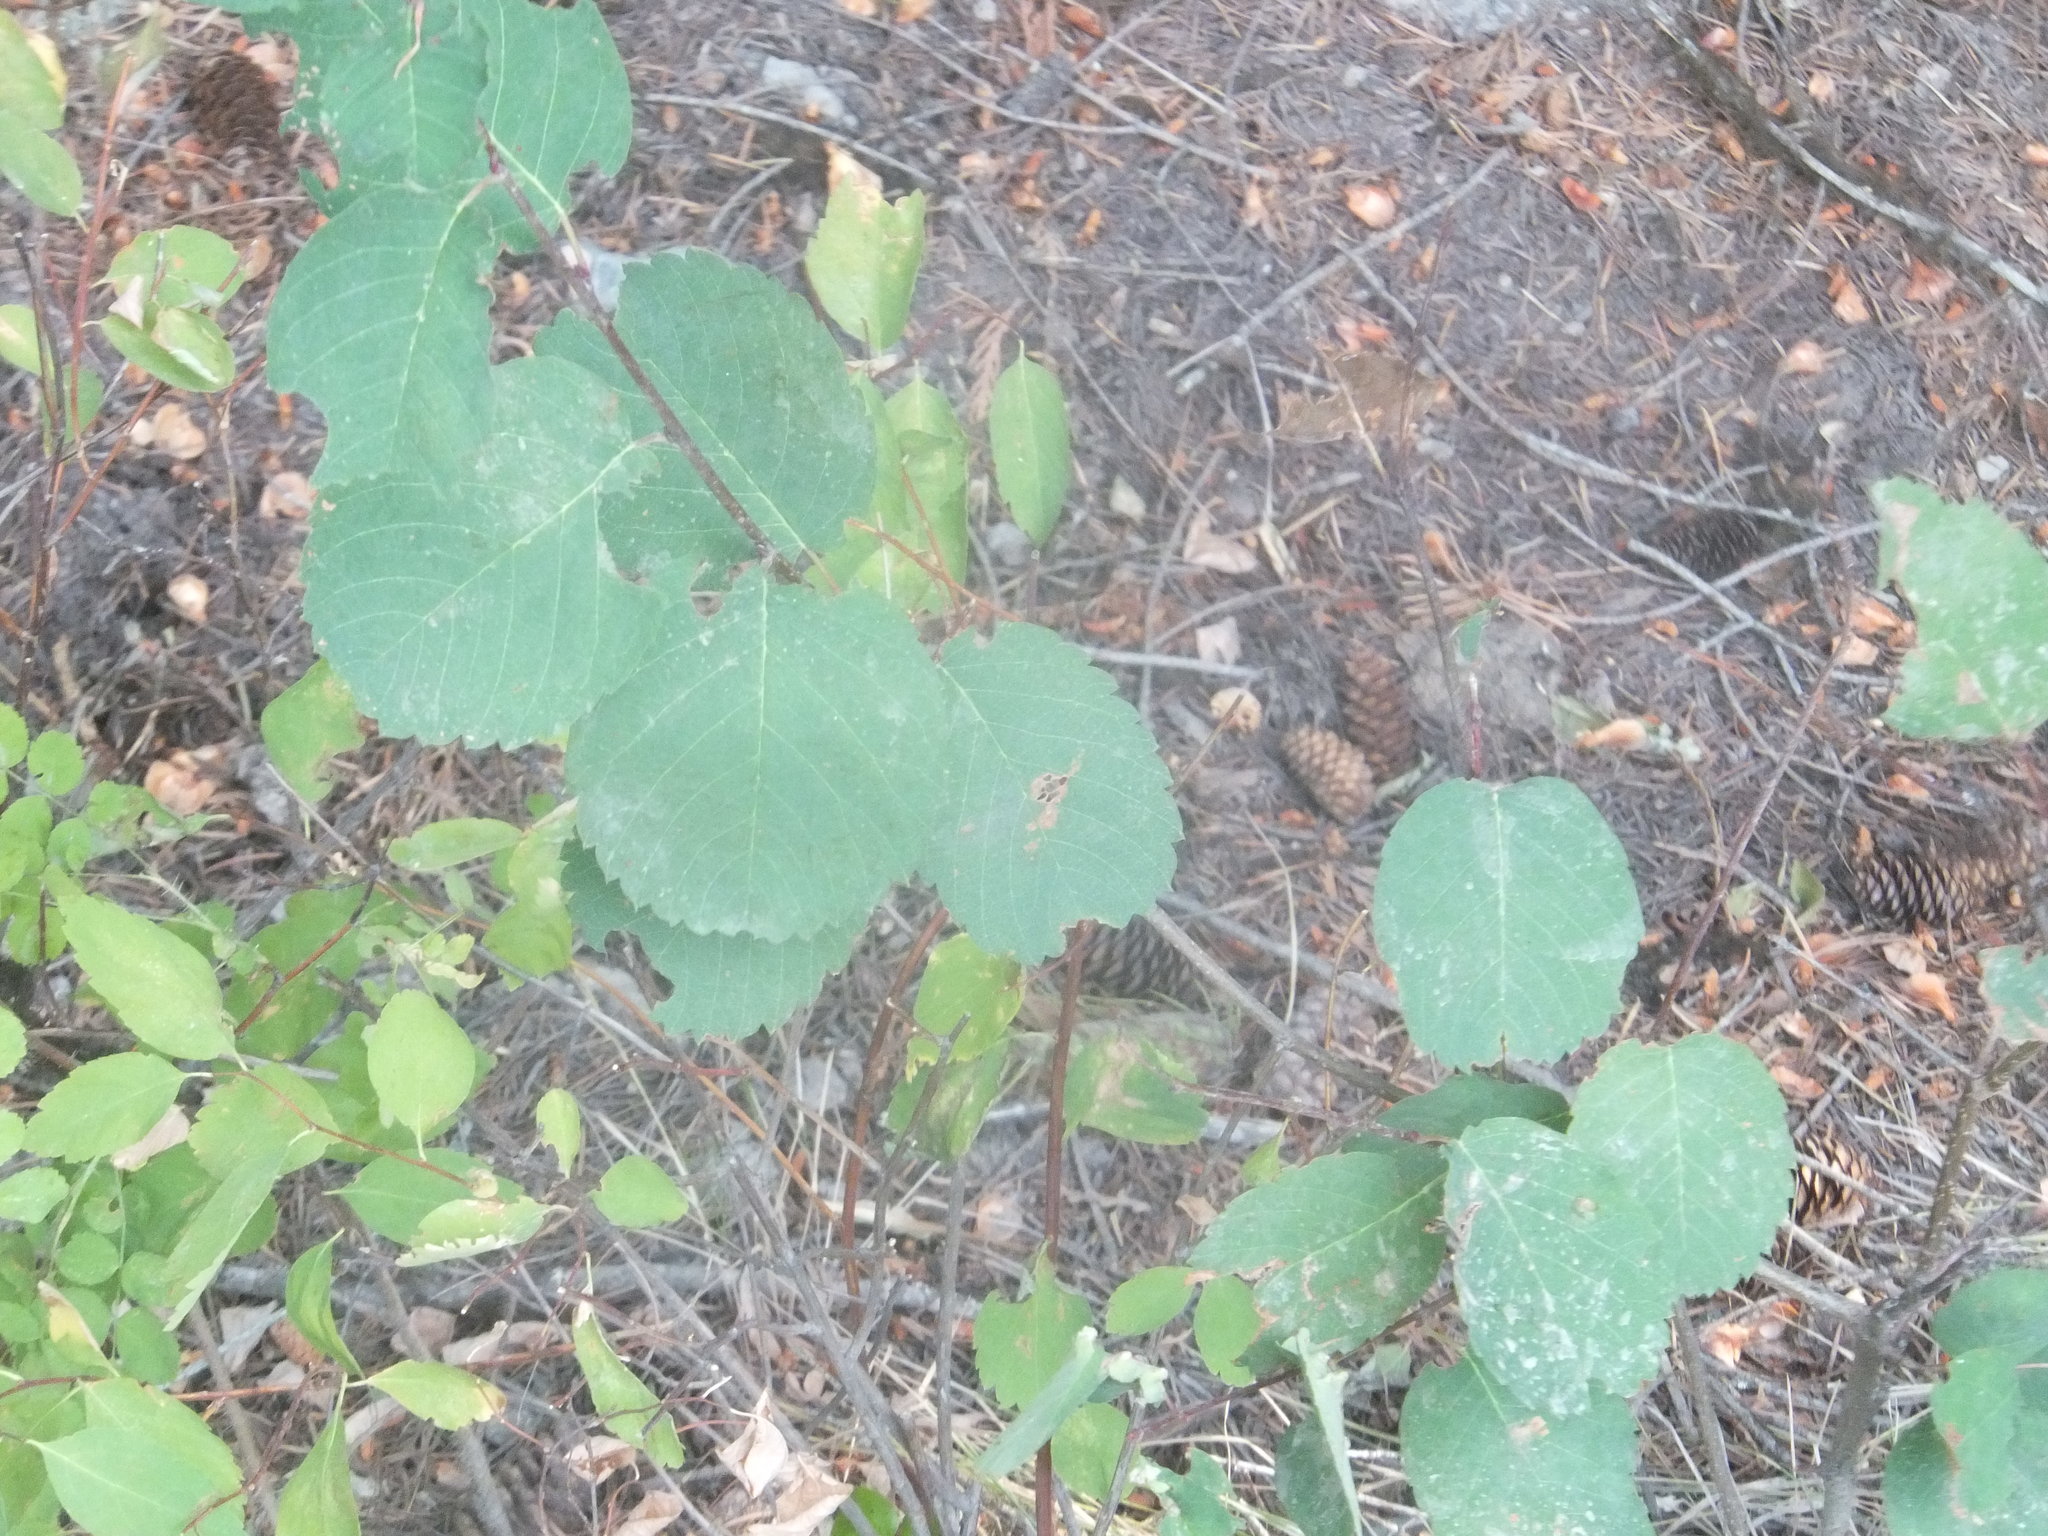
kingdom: Plantae
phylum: Tracheophyta
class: Magnoliopsida
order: Rosales
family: Rosaceae
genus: Amelanchier
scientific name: Amelanchier alnifolia
